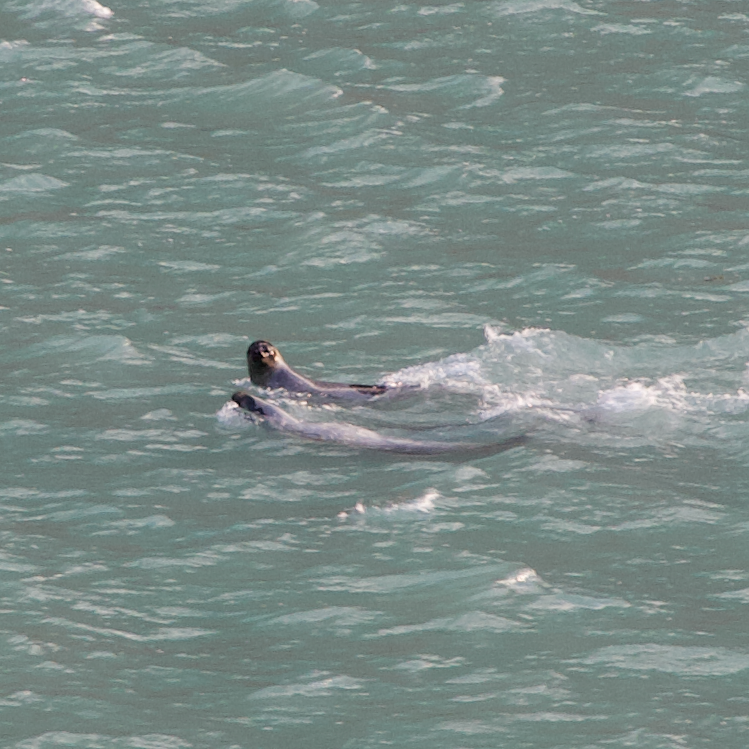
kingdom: Animalia
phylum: Chordata
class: Mammalia
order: Carnivora
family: Phocidae
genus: Pagophilus
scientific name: Pagophilus groenlandicus
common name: Harp seal
